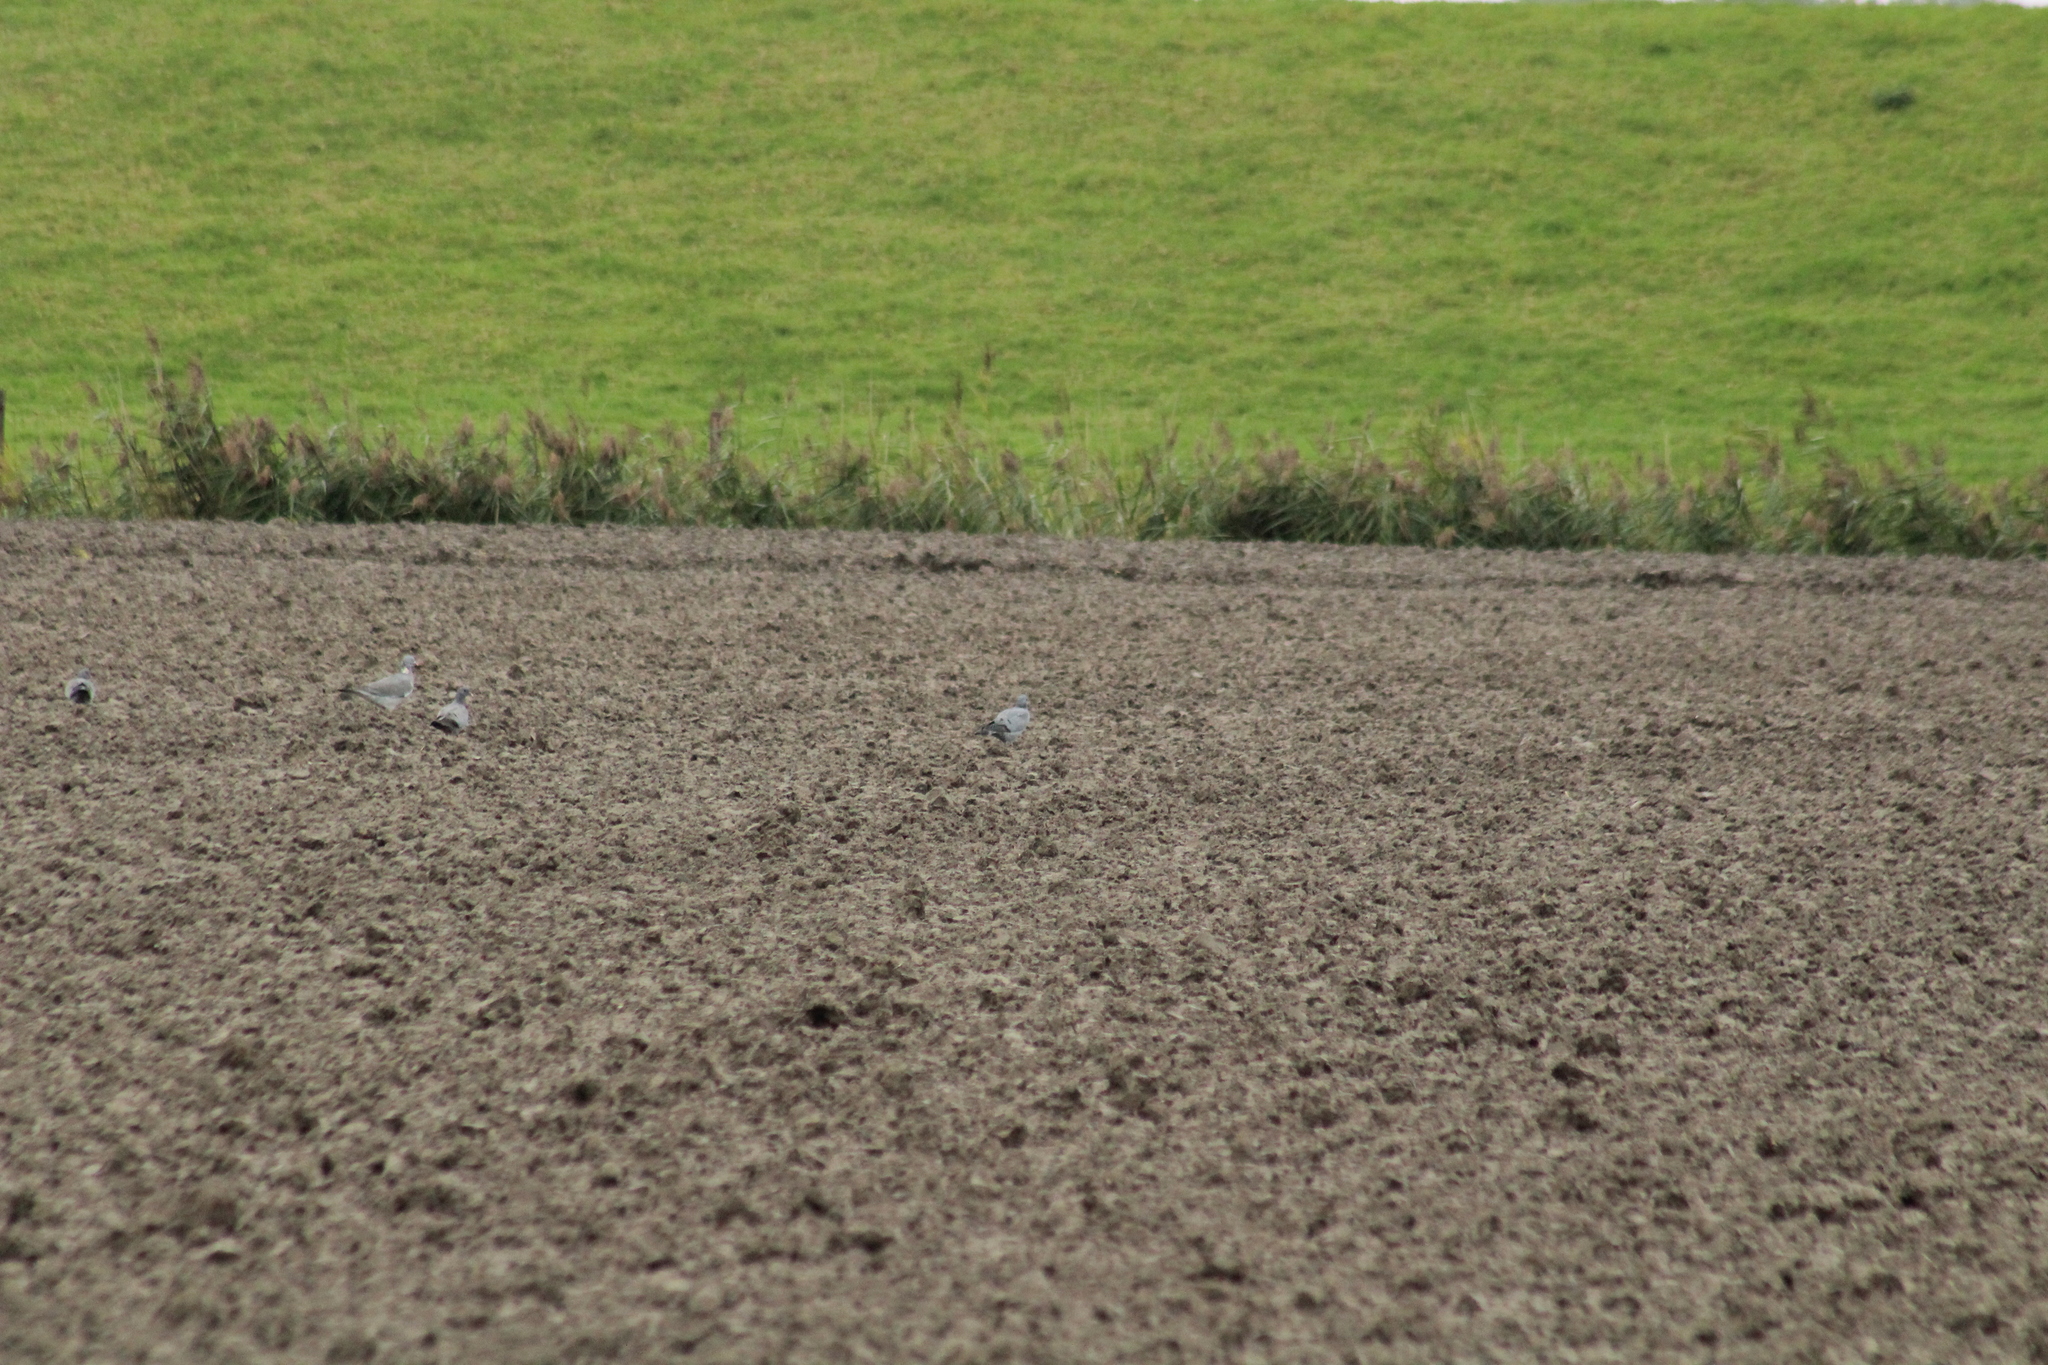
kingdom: Animalia
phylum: Chordata
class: Aves
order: Columbiformes
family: Columbidae
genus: Columba
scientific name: Columba oenas
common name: Stock dove
